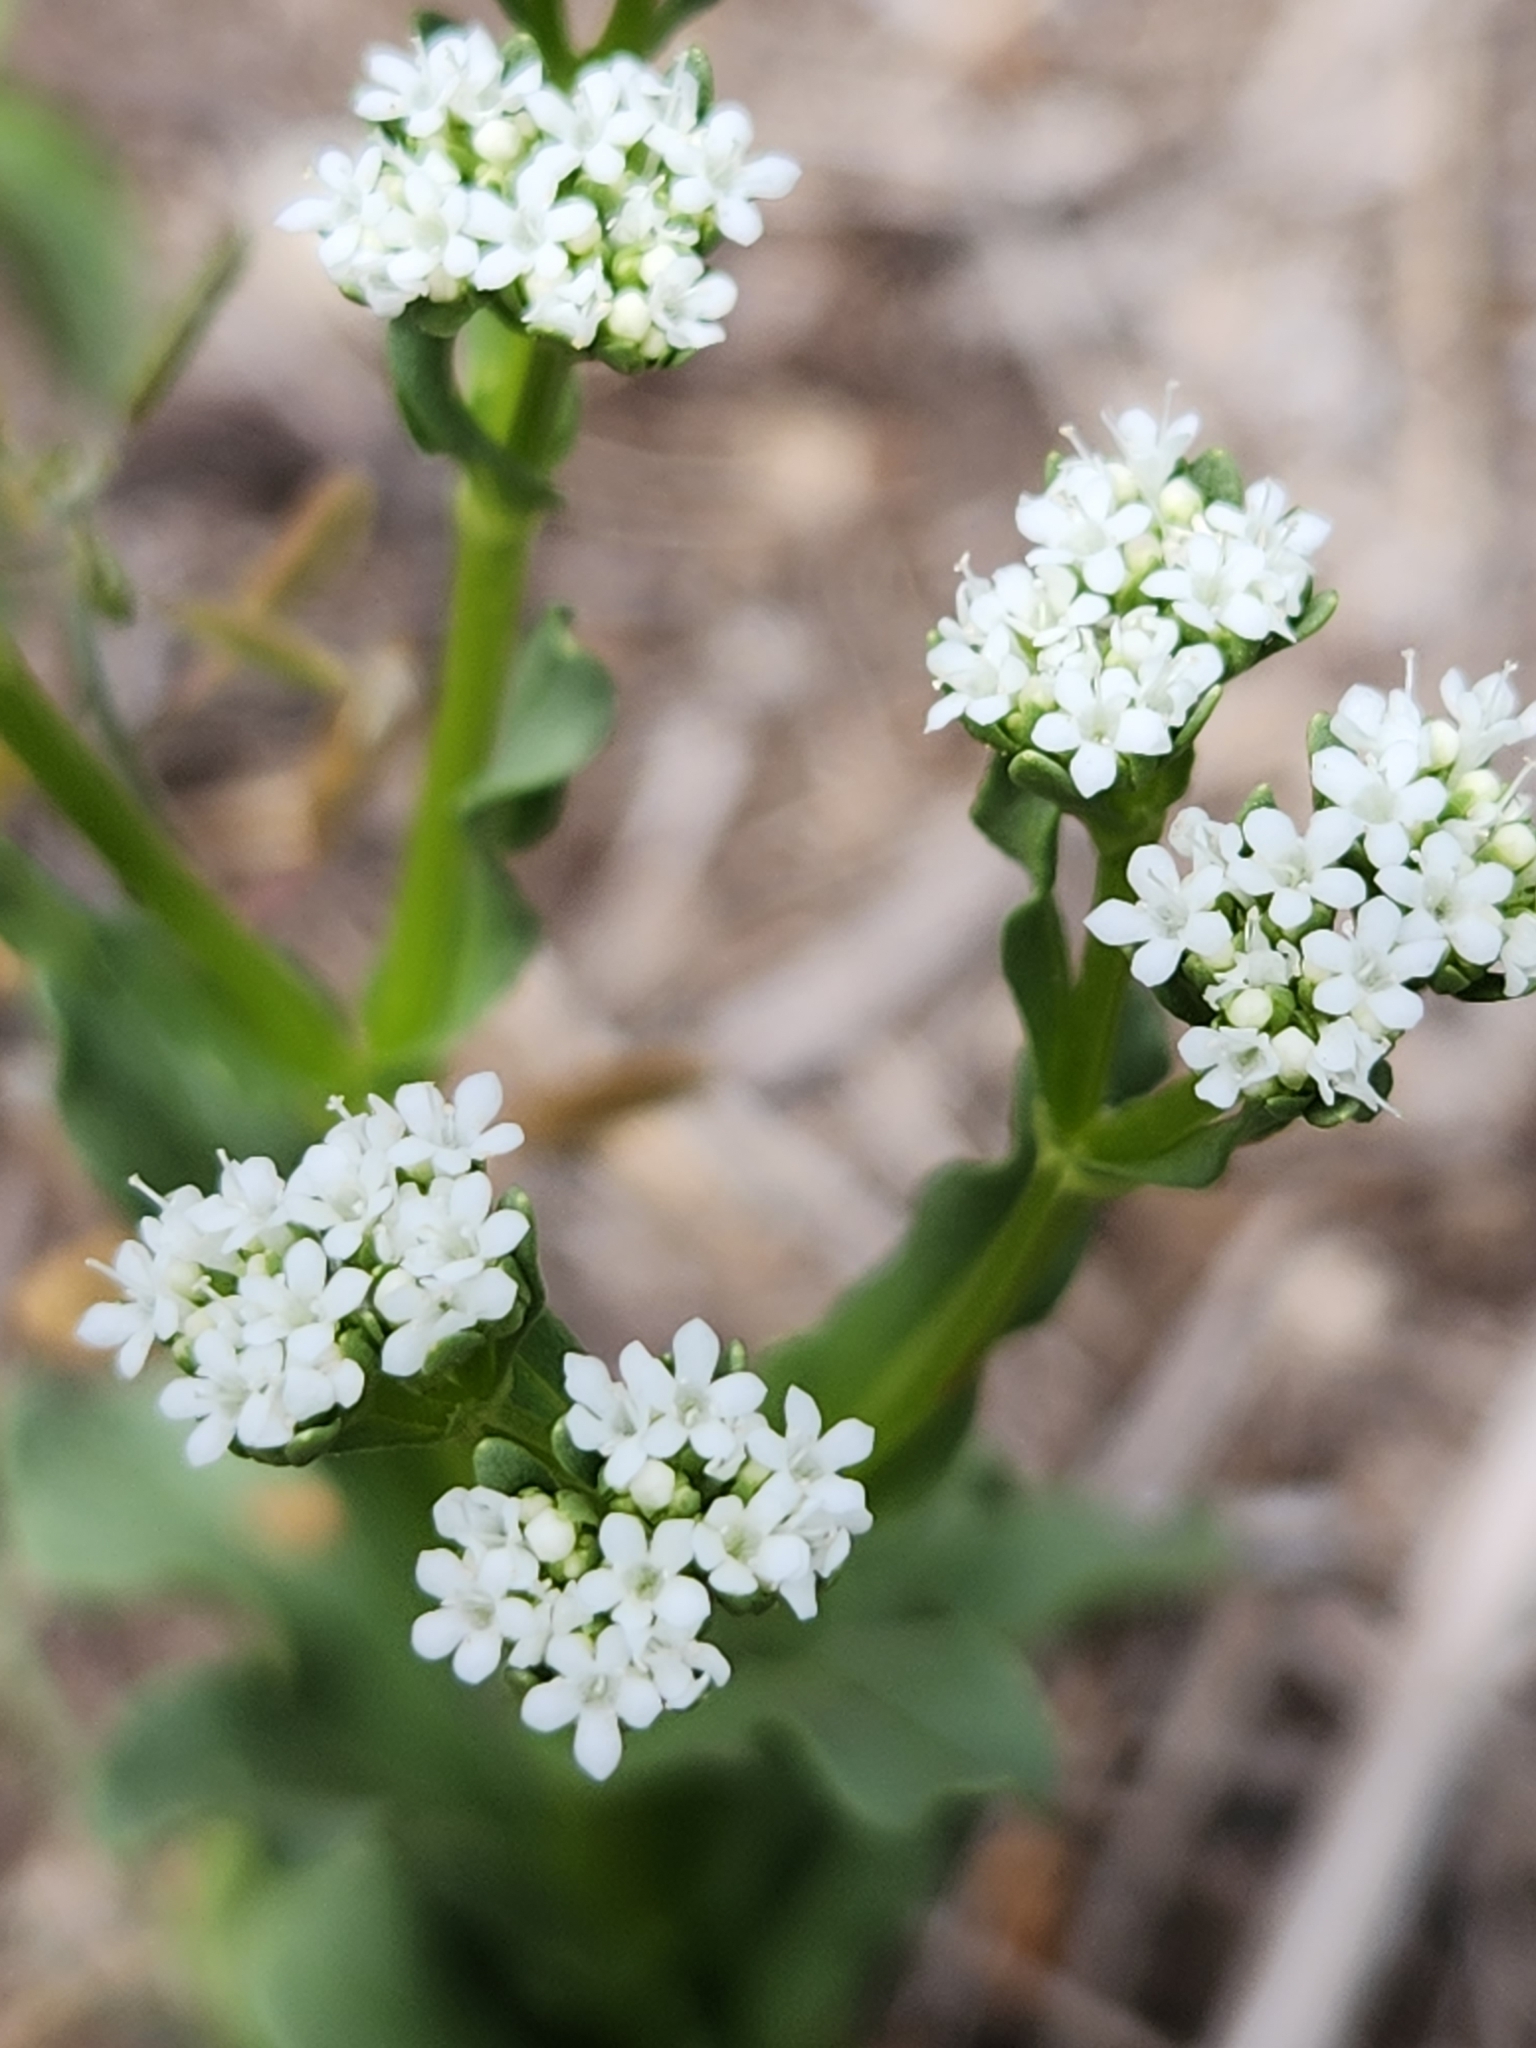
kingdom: Plantae
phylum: Tracheophyta
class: Magnoliopsida
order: Dipsacales
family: Caprifoliaceae
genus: Valerianella
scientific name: Valerianella amarella
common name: Hariy cornsalad
